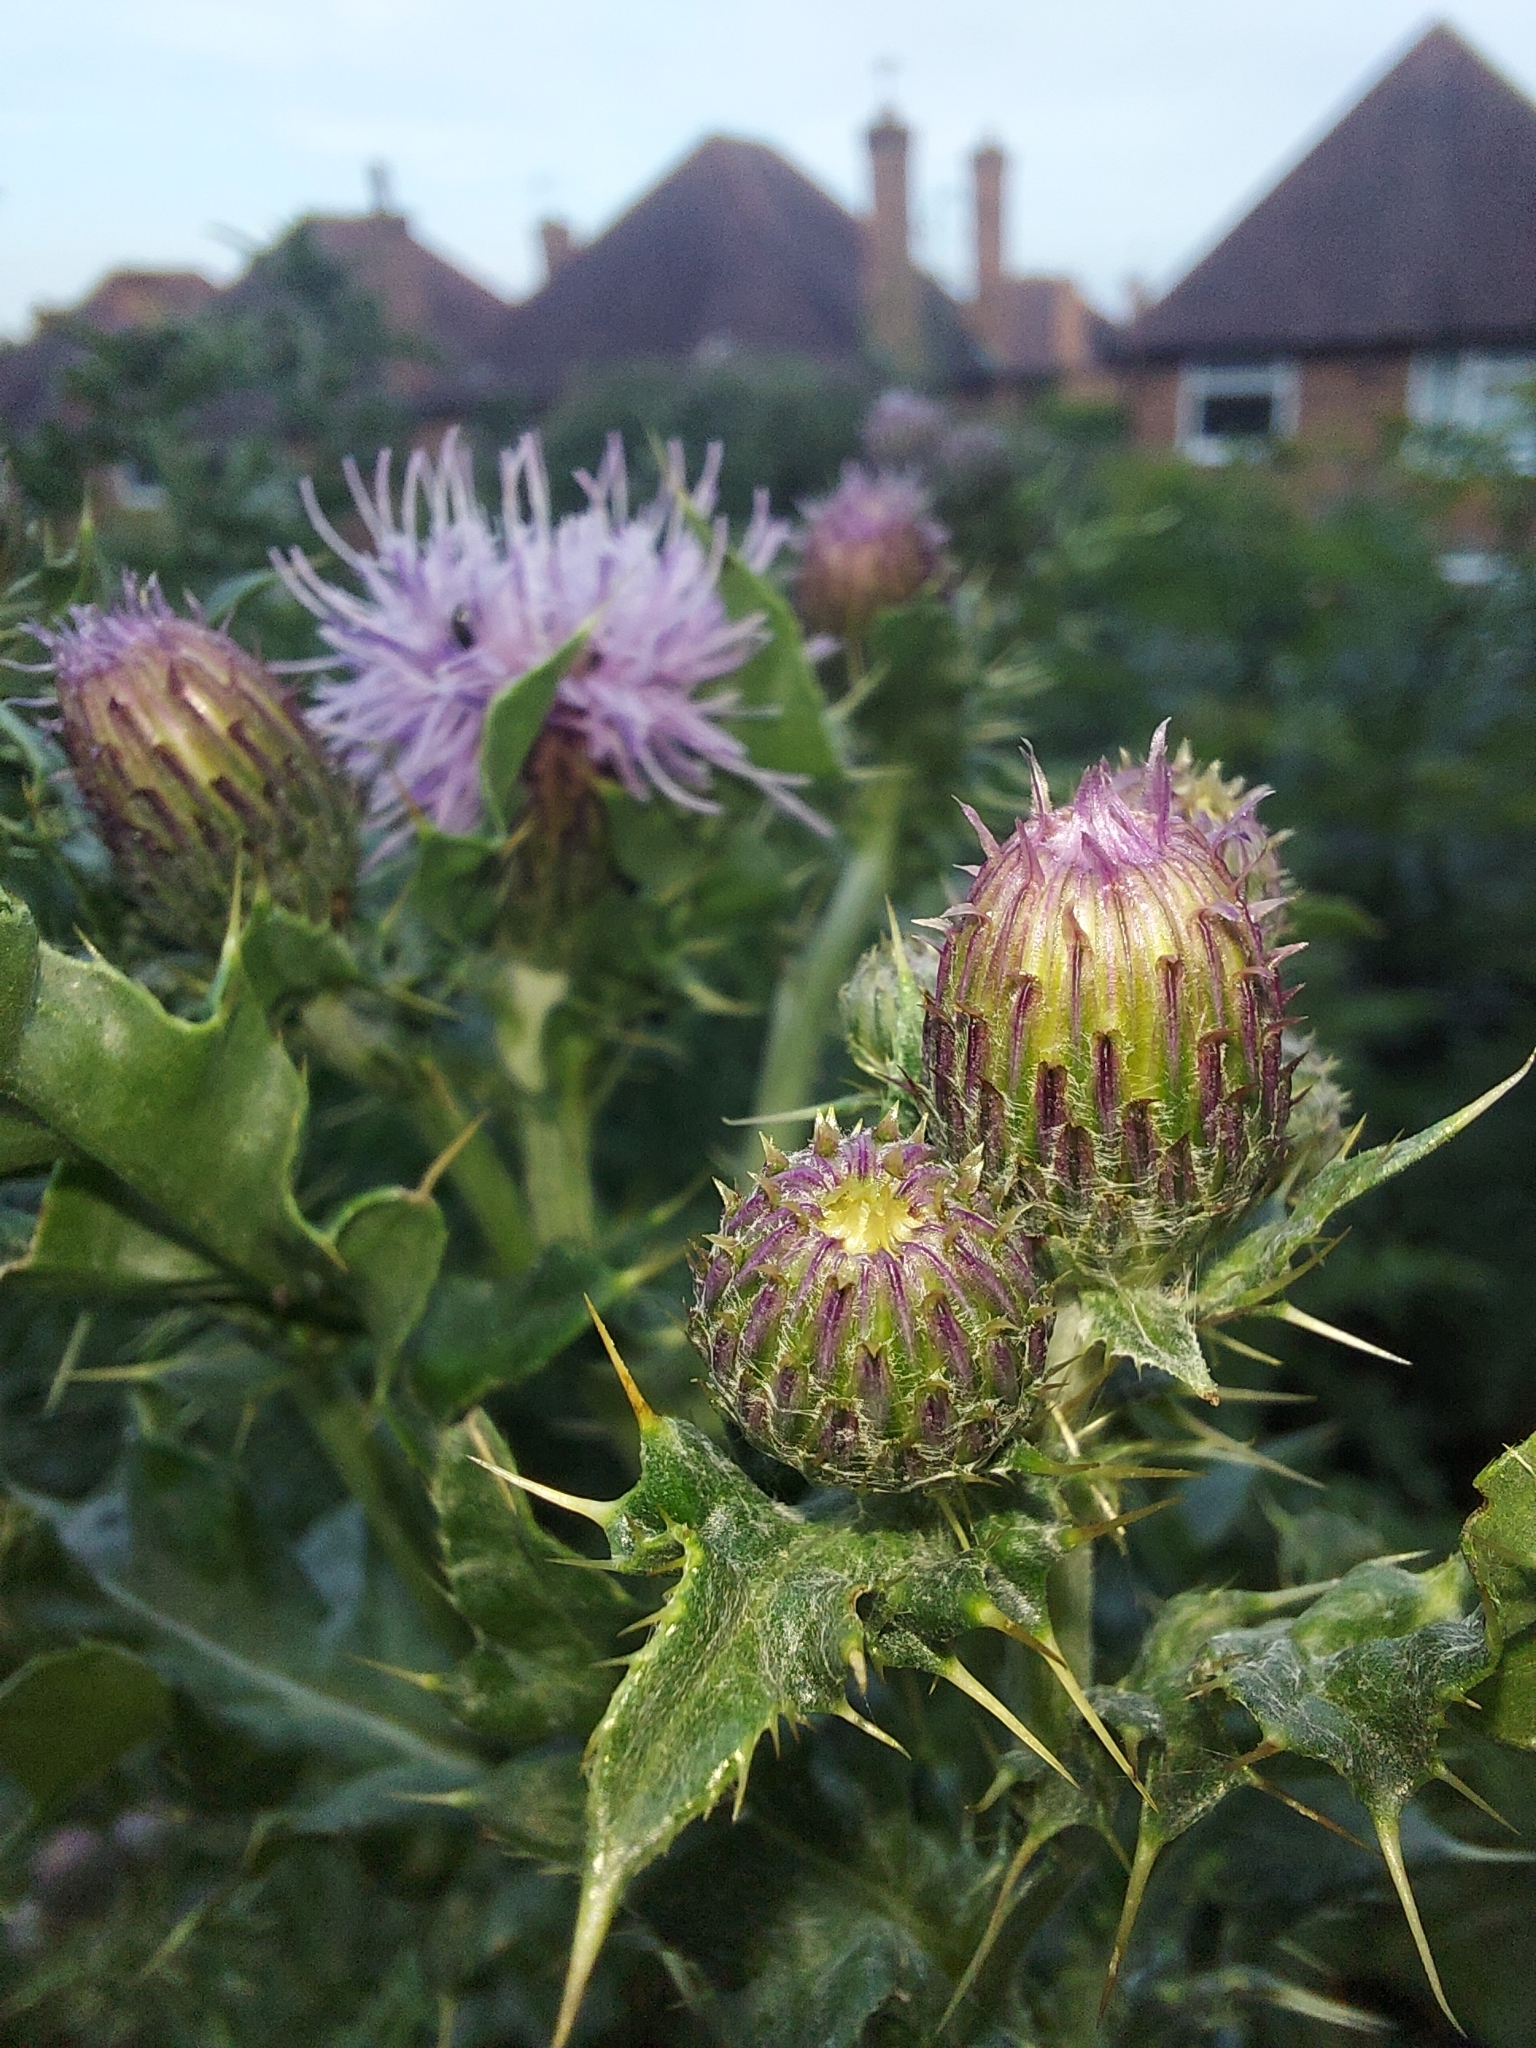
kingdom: Plantae
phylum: Tracheophyta
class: Magnoliopsida
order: Asterales
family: Asteraceae
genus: Cirsium
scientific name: Cirsium arvense
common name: Creeping thistle
